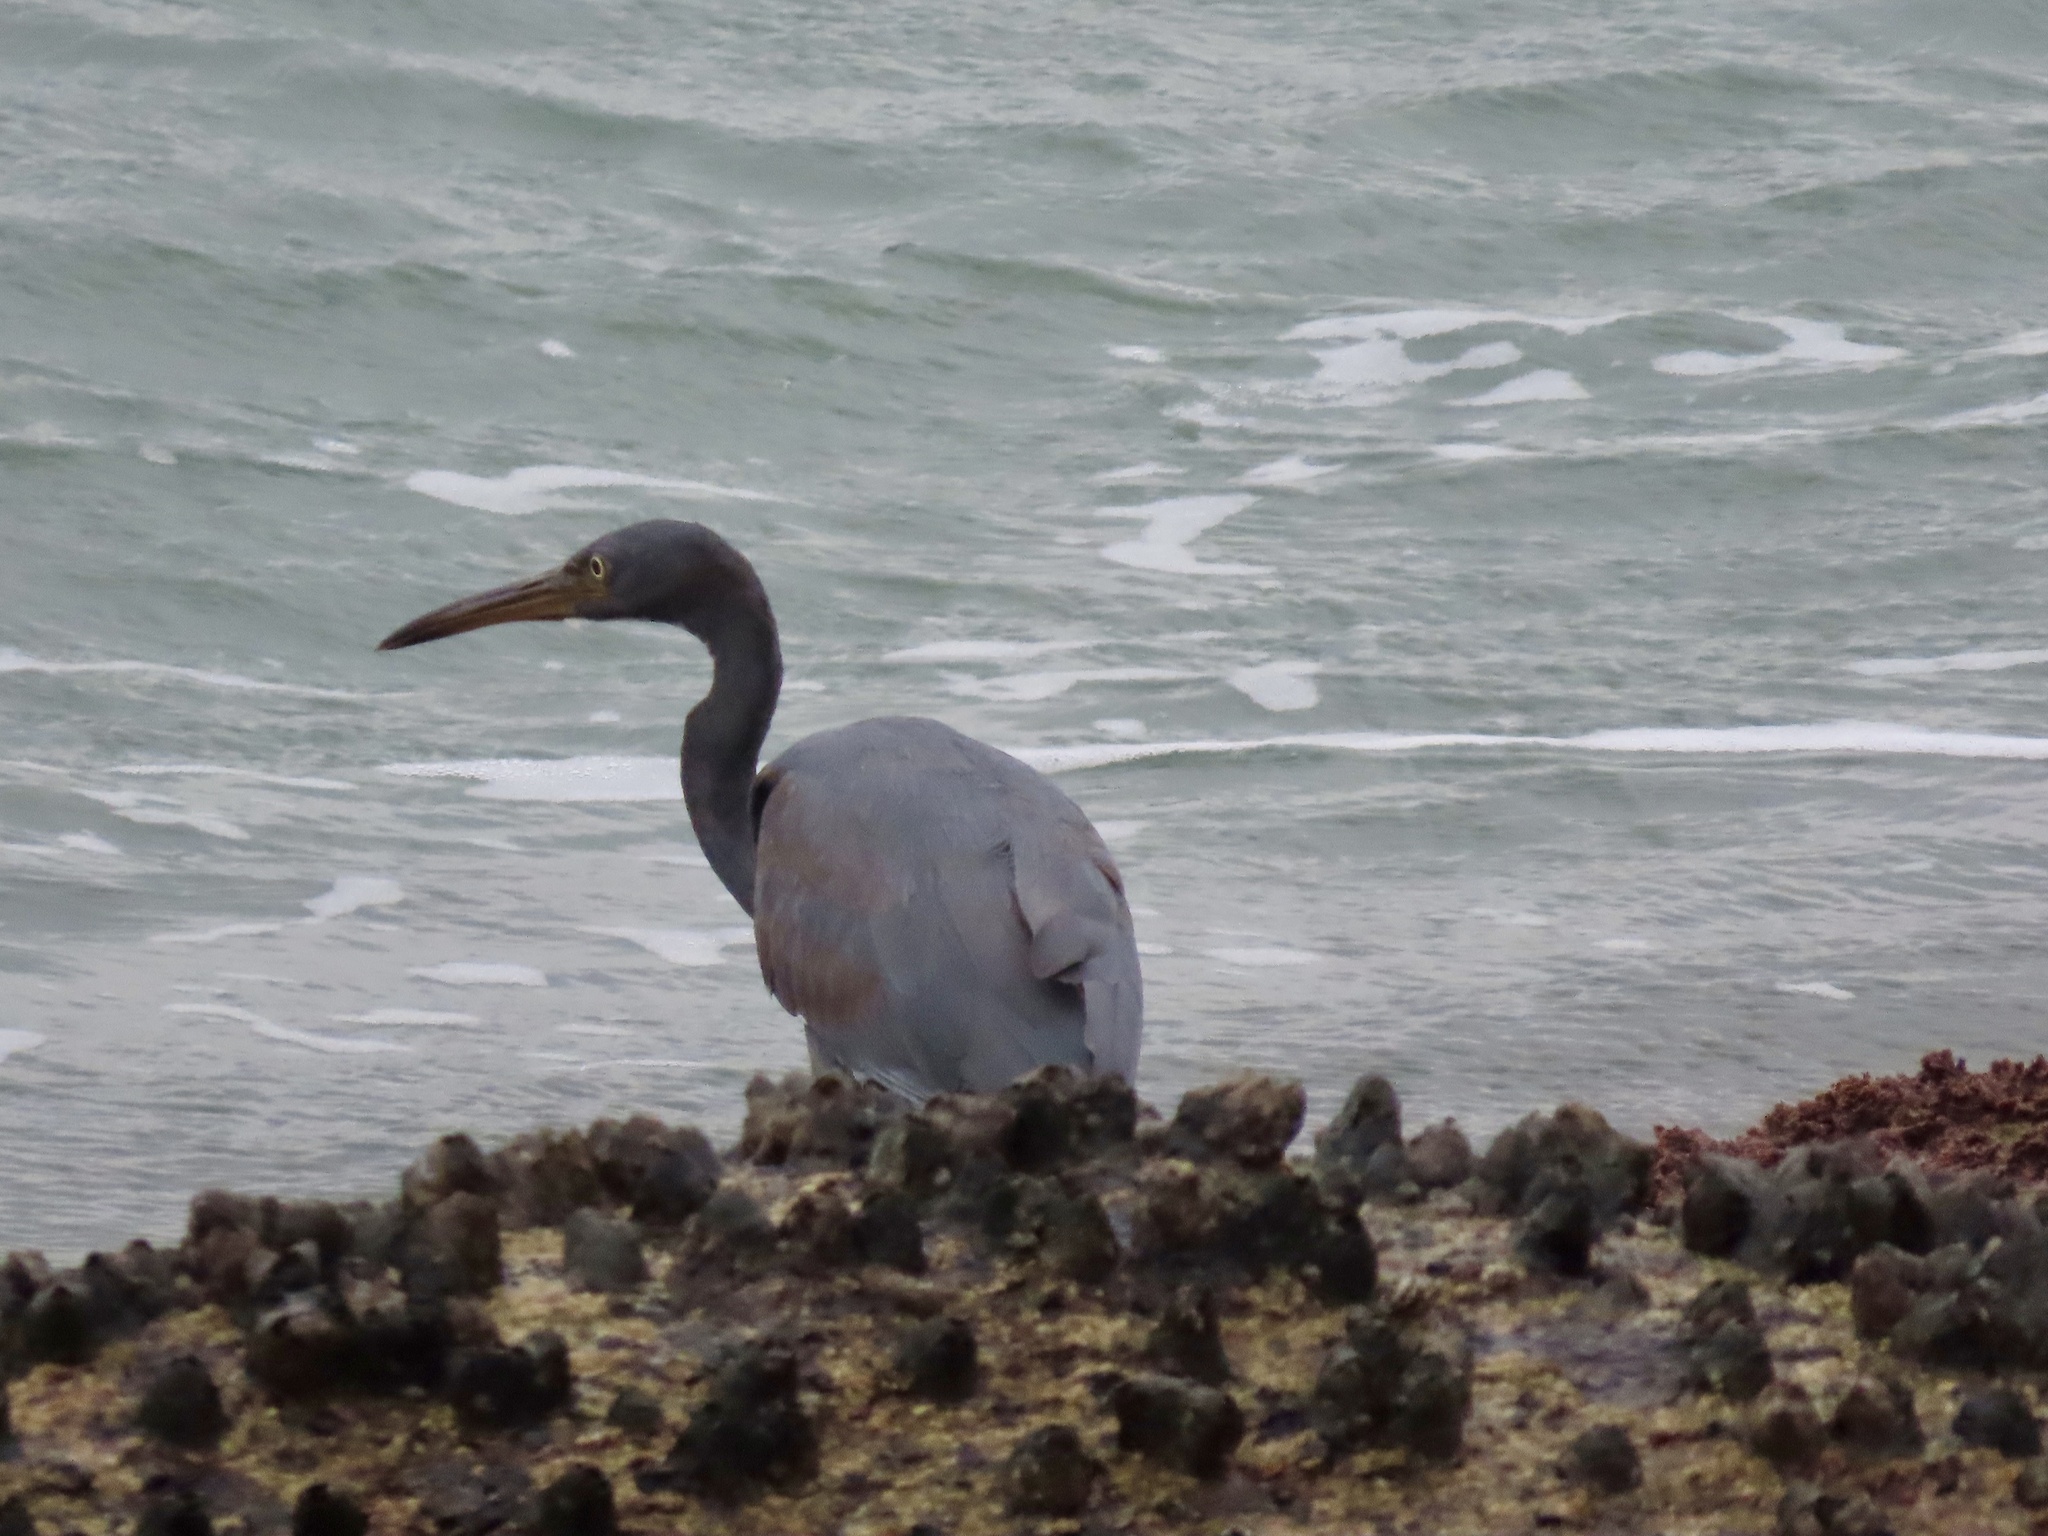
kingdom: Animalia
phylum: Chordata
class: Aves
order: Pelecaniformes
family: Ardeidae
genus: Egretta
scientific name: Egretta sacra
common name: Pacific reef heron
